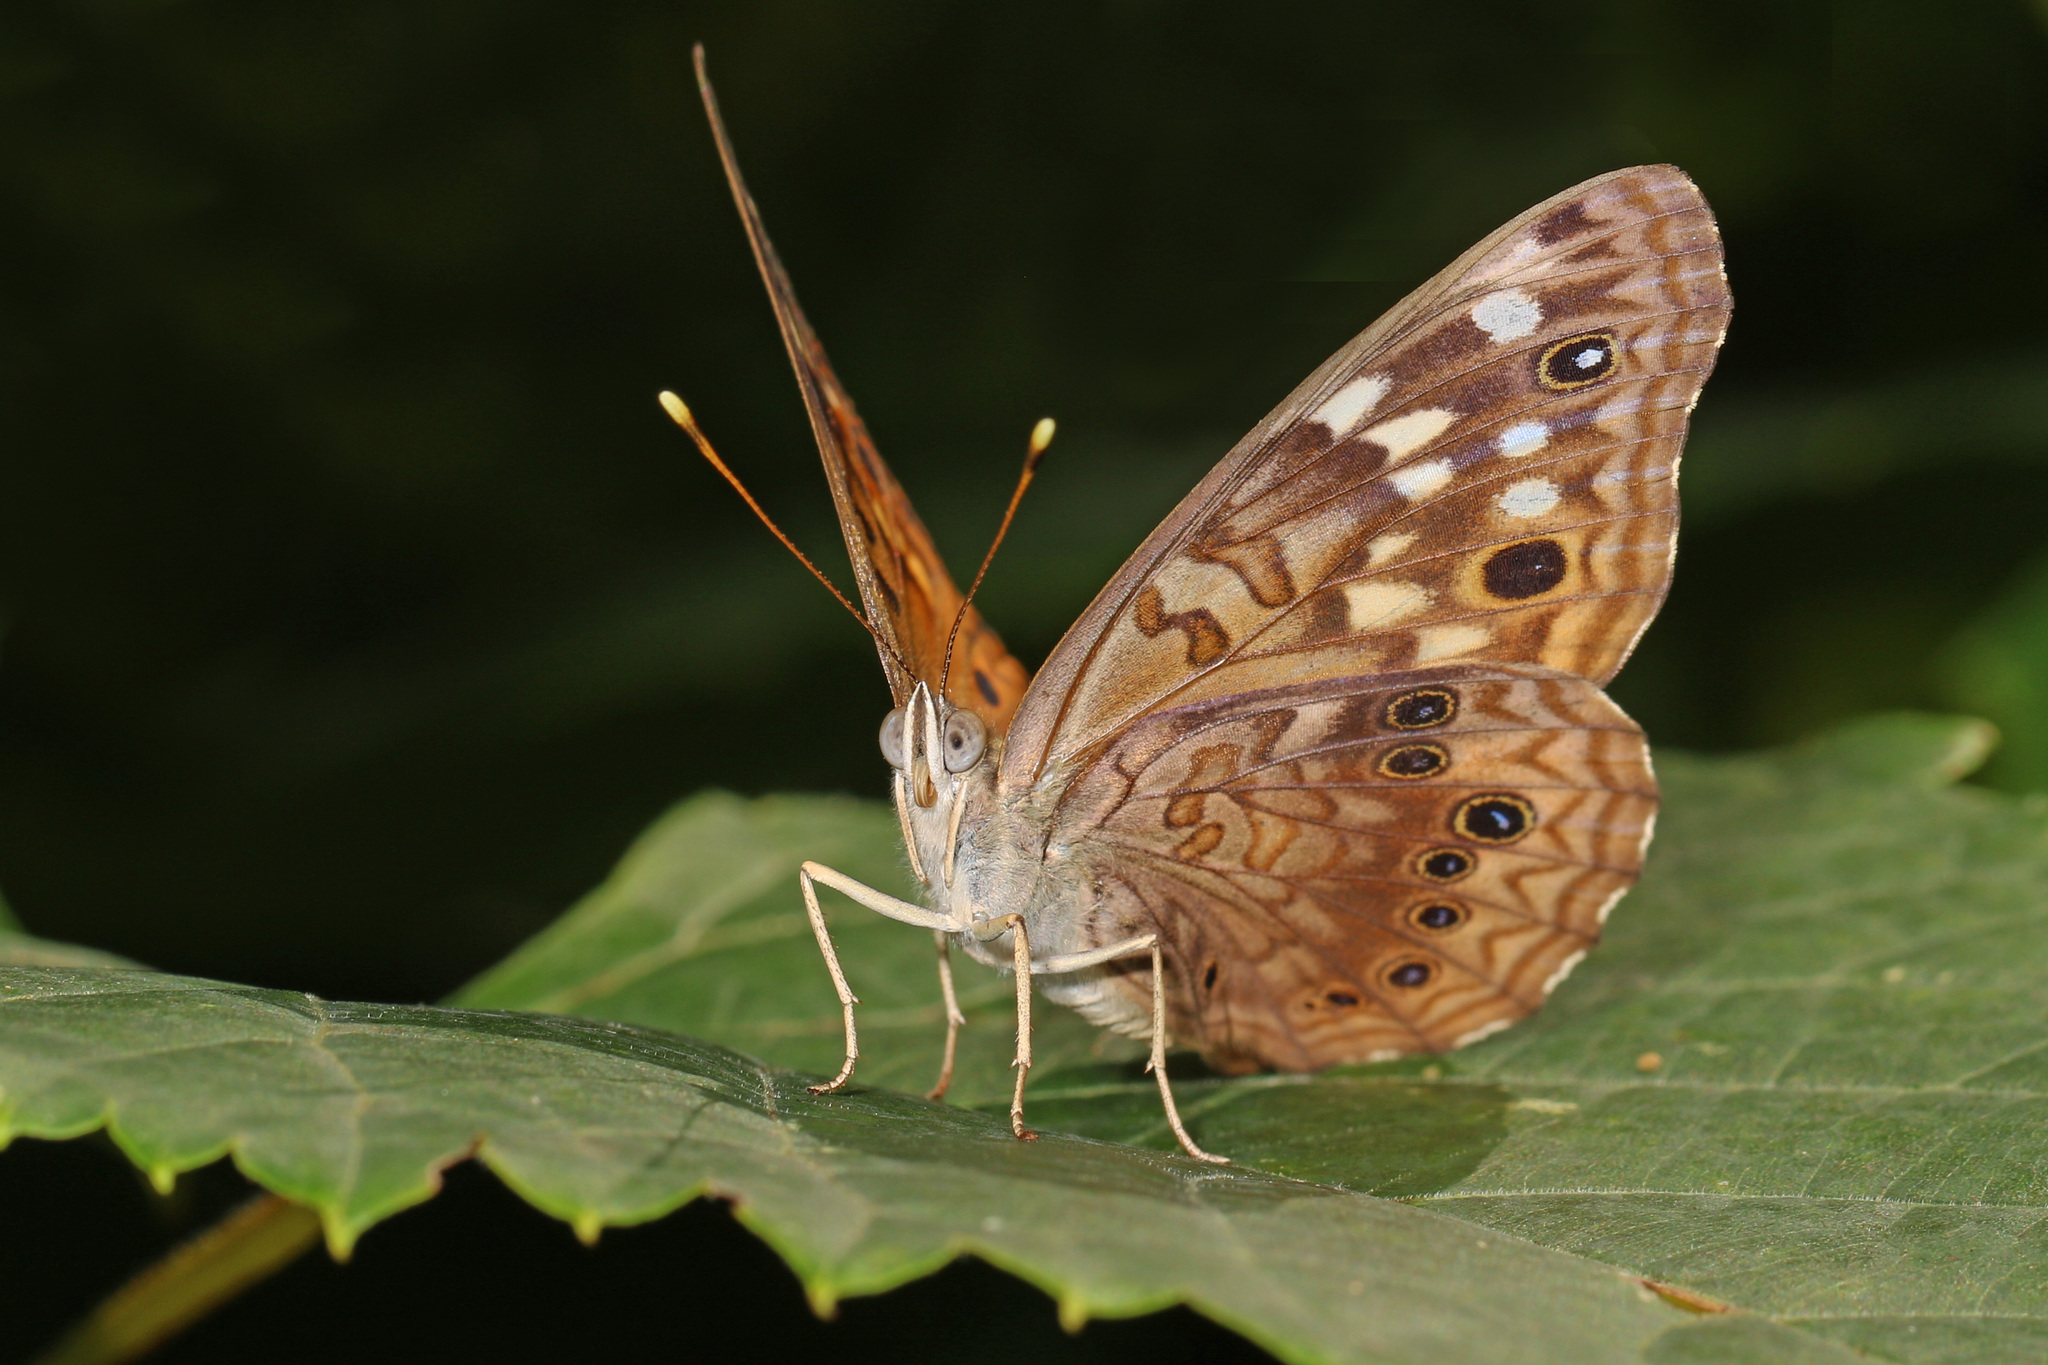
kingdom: Animalia
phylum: Arthropoda
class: Insecta
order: Lepidoptera
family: Nymphalidae
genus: Asterocampa
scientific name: Asterocampa celtis
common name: Hackberry emperor
